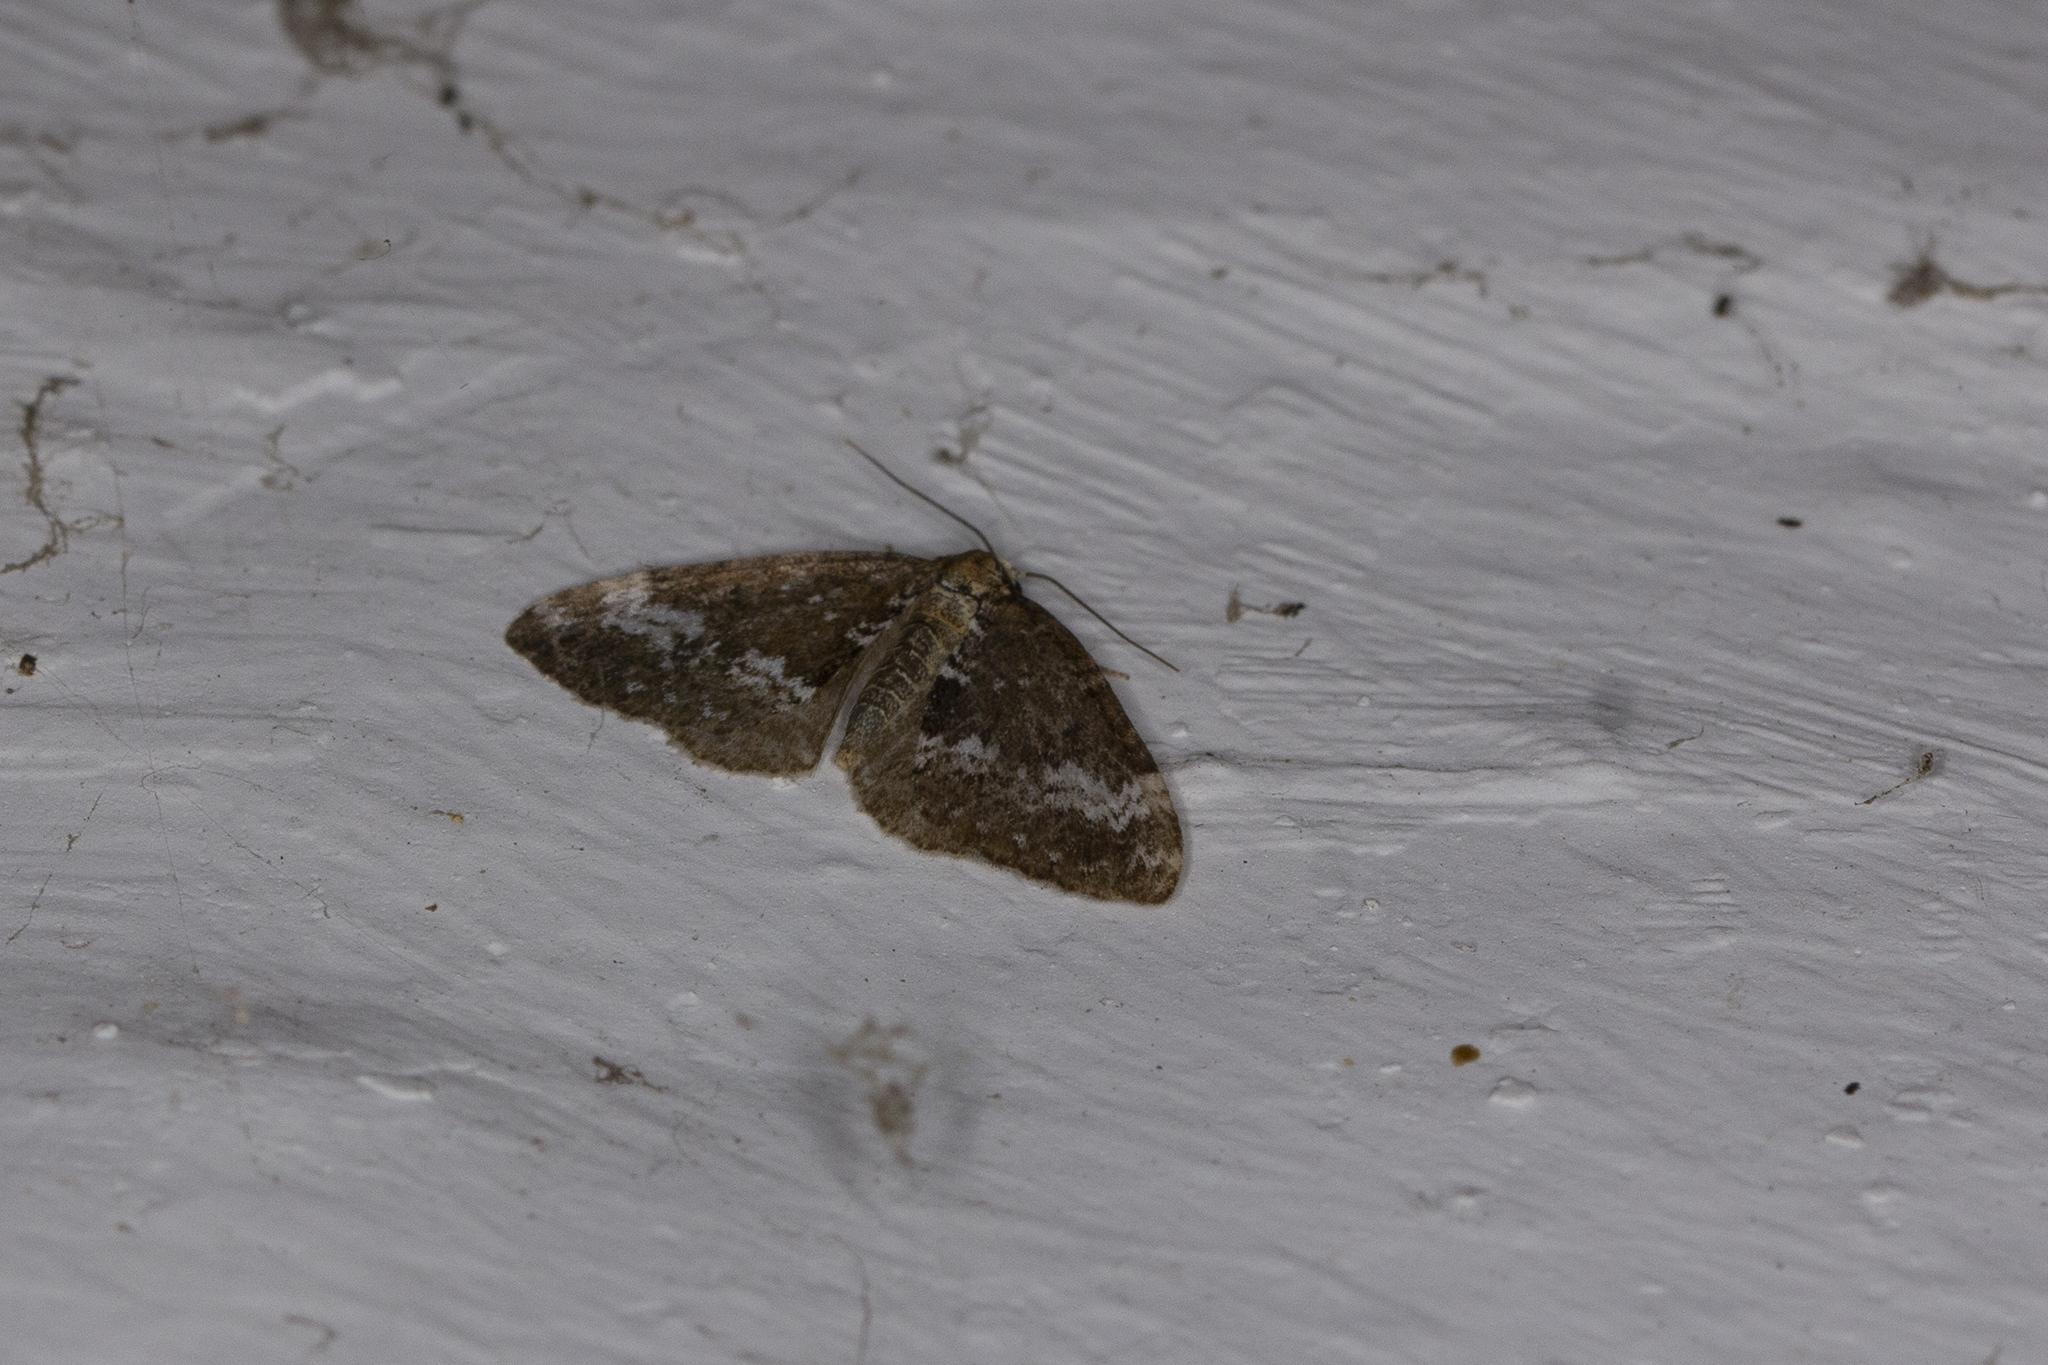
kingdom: Animalia
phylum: Arthropoda
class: Insecta
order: Lepidoptera
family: Geometridae
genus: Perizoma
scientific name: Perizoma alchemillata
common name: Small rivulet
